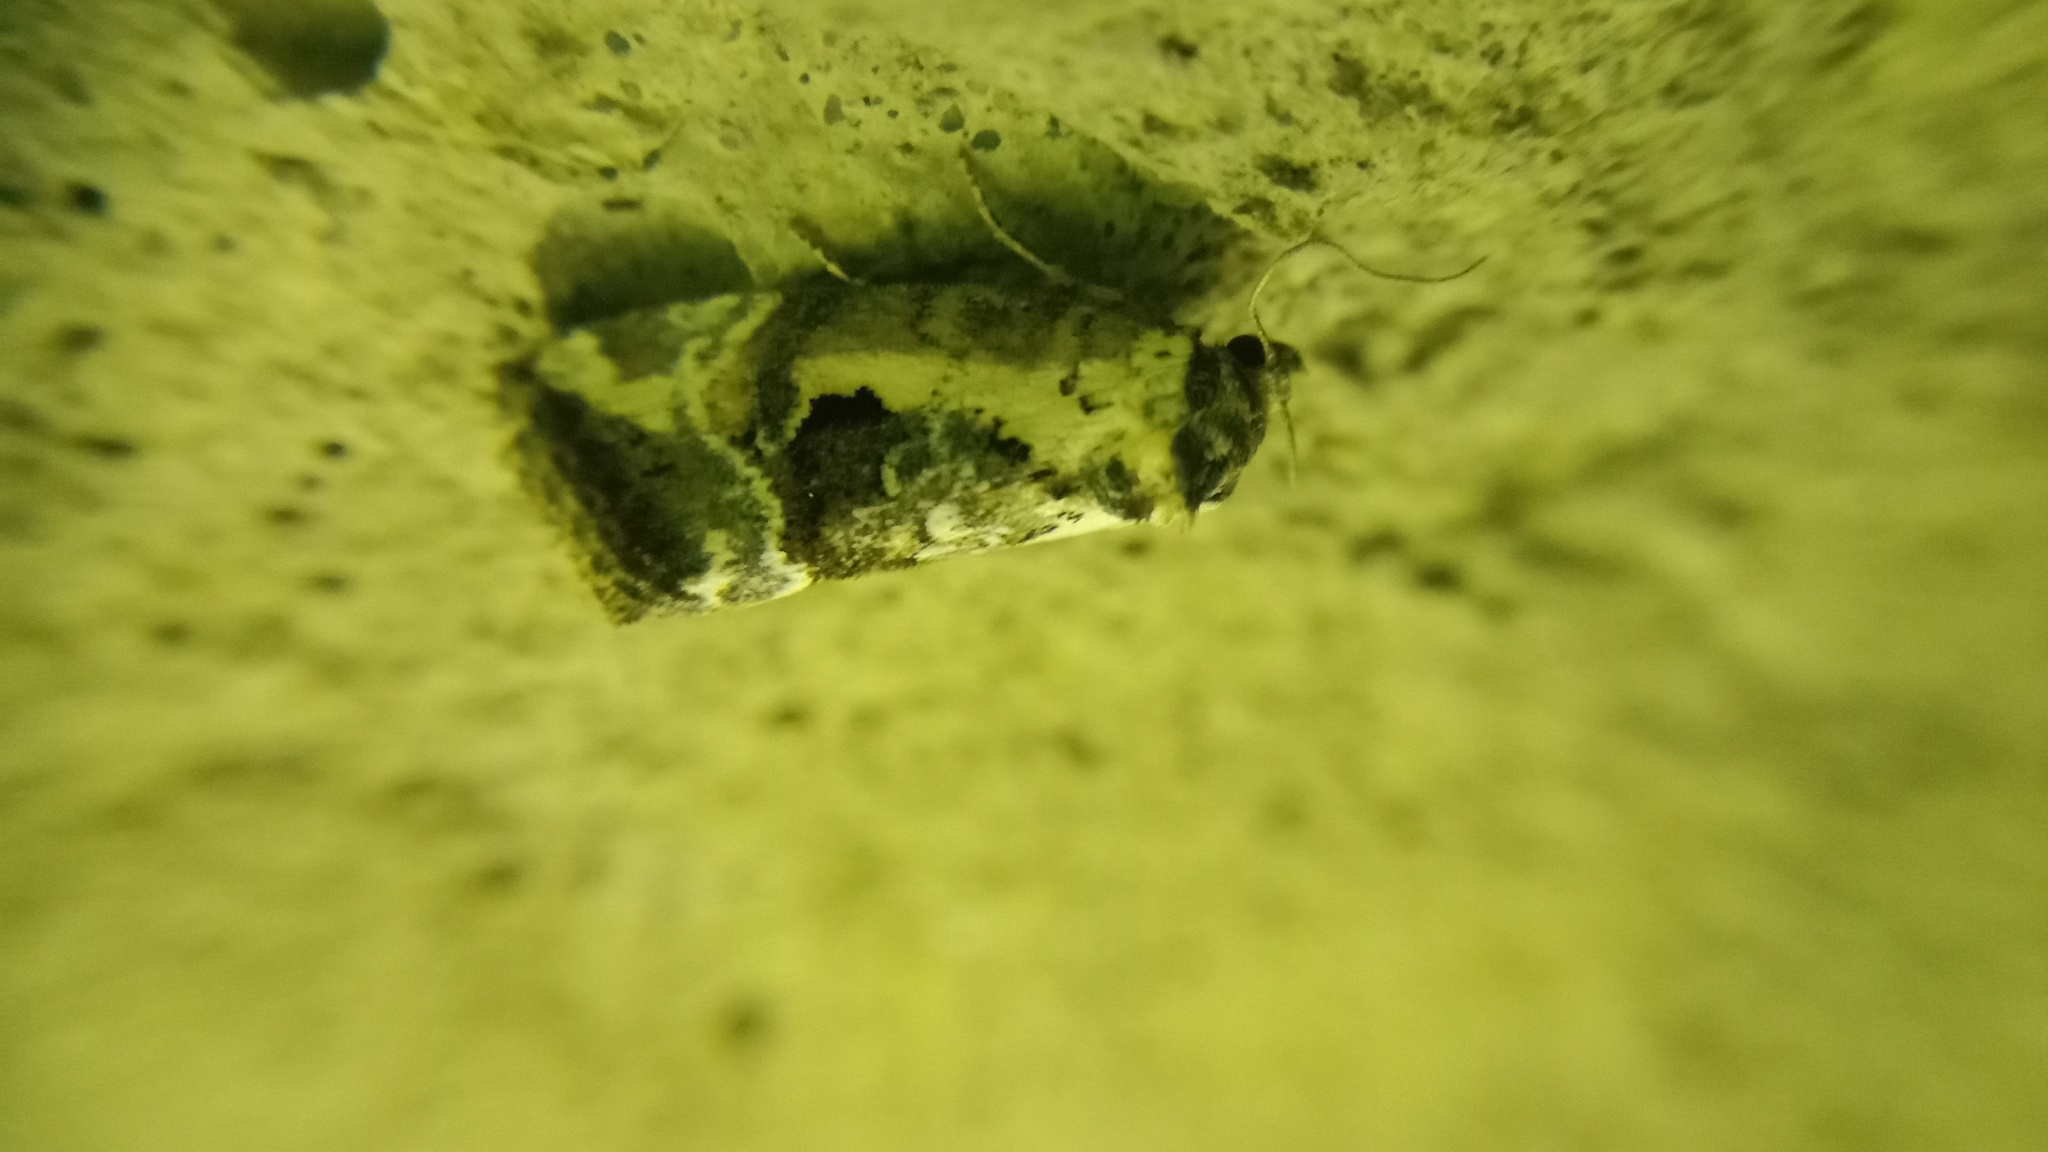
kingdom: Animalia
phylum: Arthropoda
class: Insecta
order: Lepidoptera
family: Noctuidae
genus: Elaphria
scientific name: Elaphria venustula
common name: Rosy marbled
